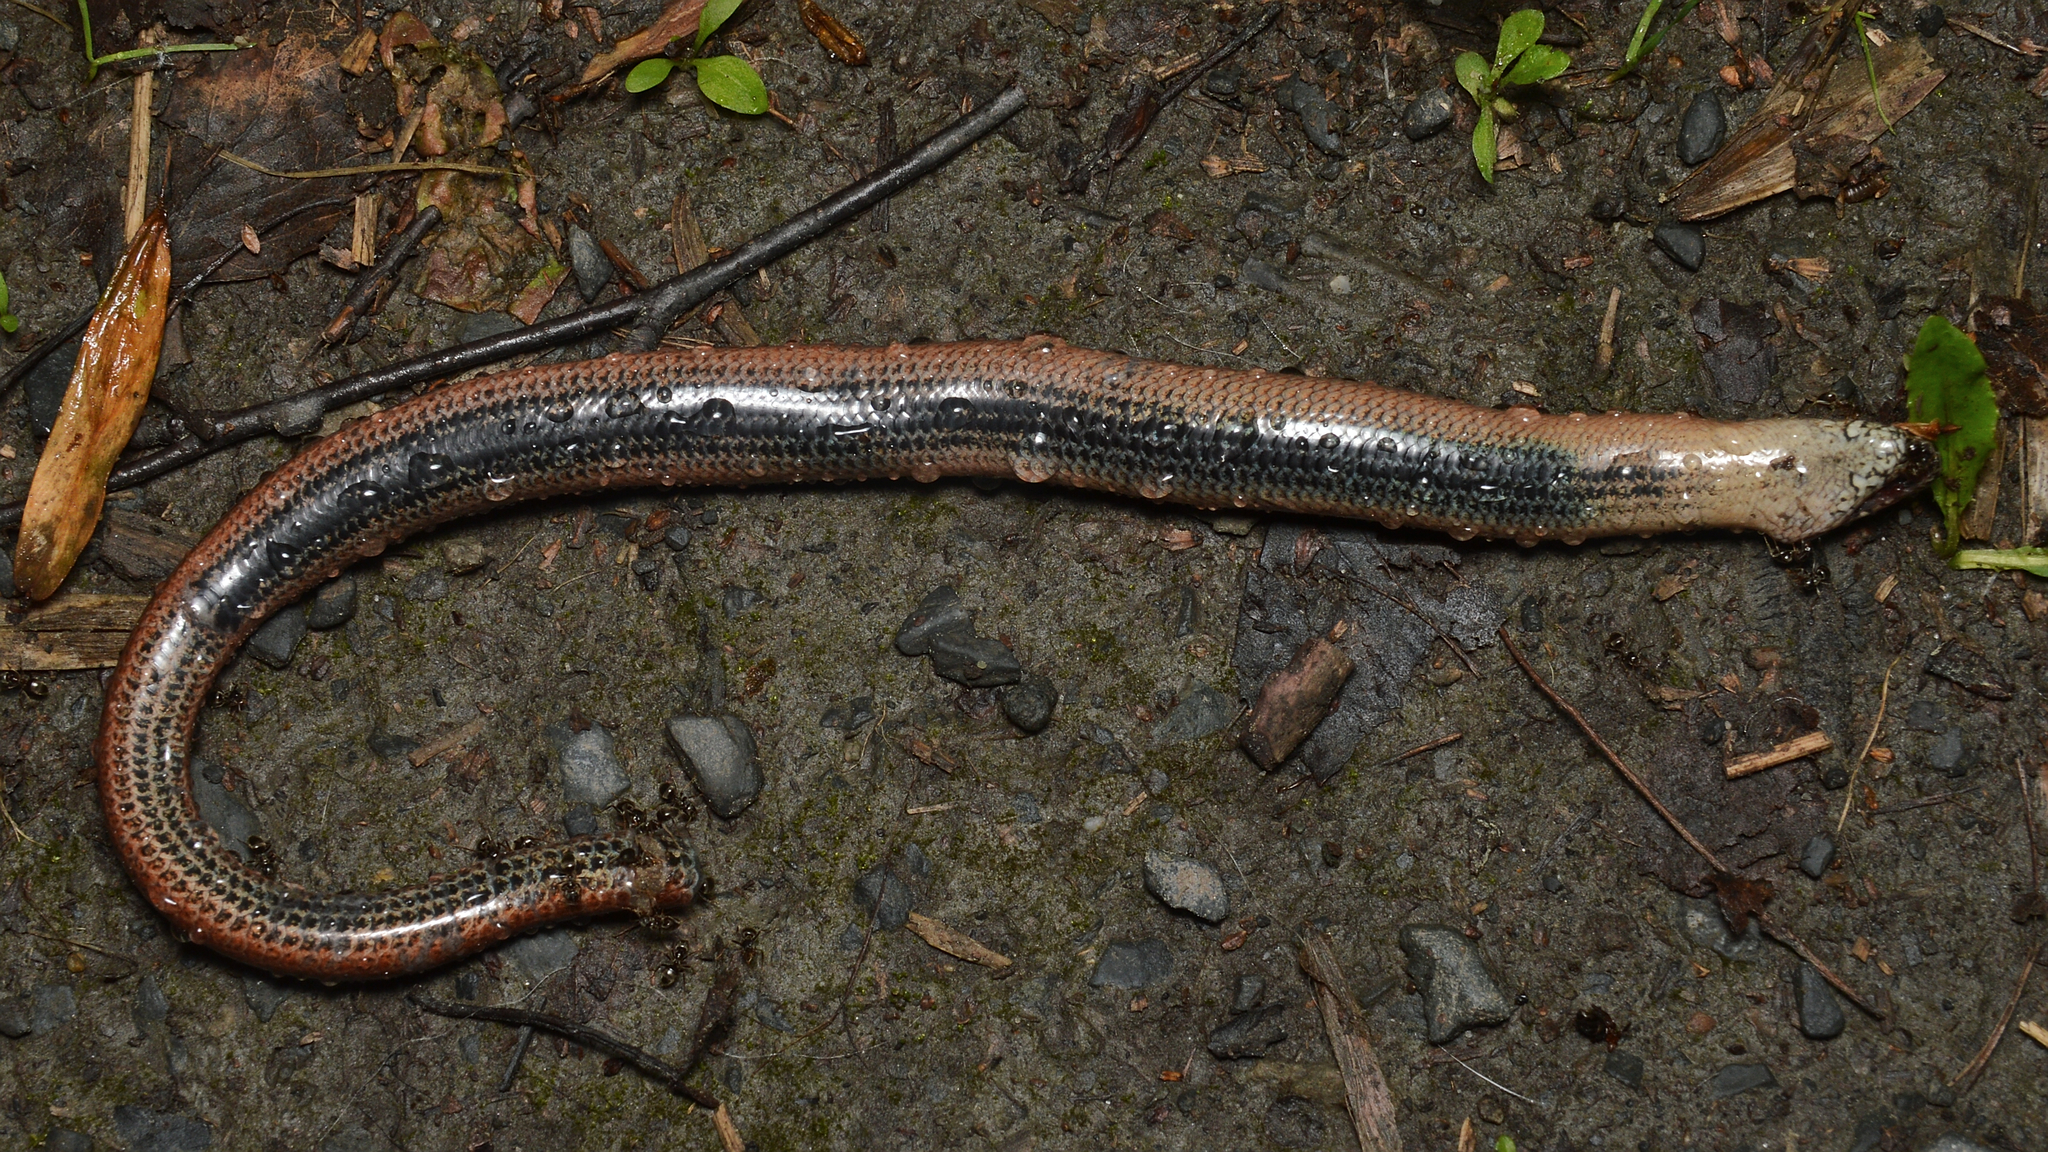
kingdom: Animalia
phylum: Chordata
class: Squamata
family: Anguidae
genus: Anguis
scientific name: Anguis fragilis
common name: Slow worm
